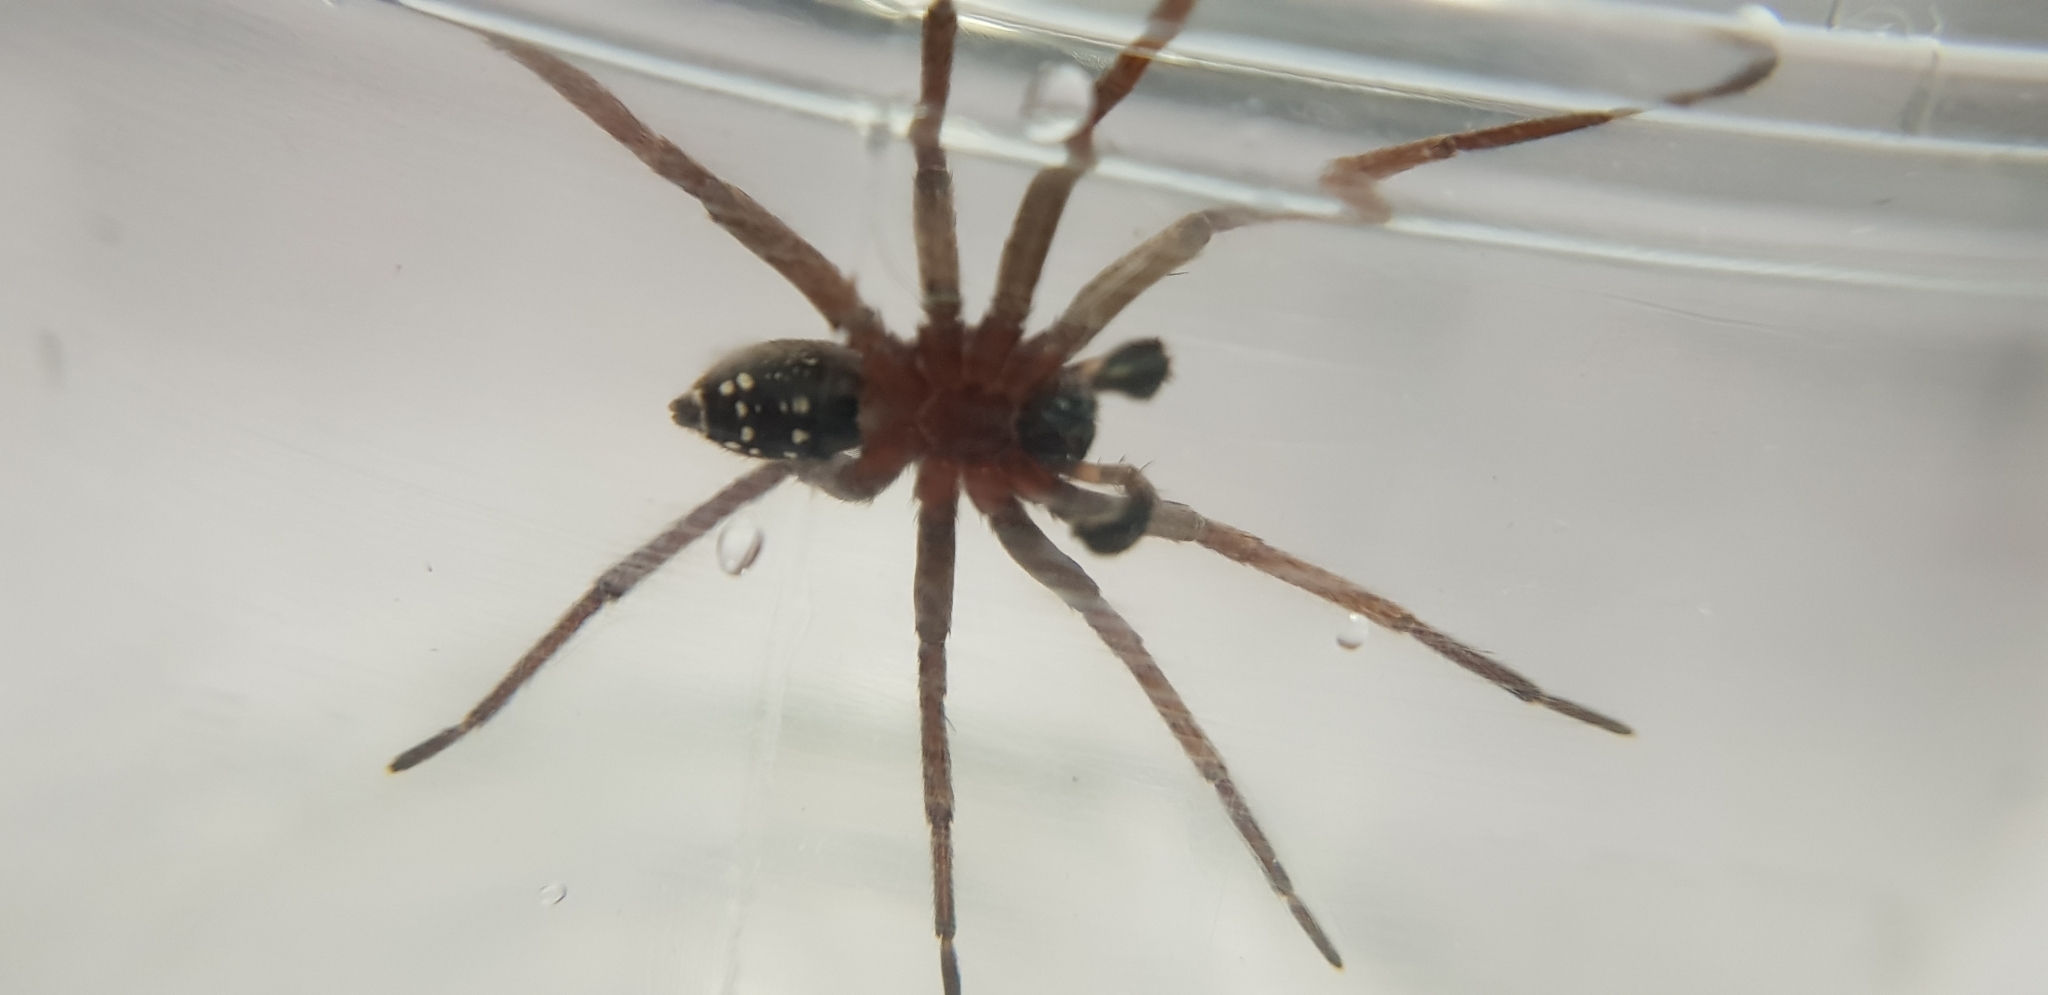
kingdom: Animalia
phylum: Arthropoda
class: Arachnida
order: Araneae
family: Miturgidae
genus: Mituliodon
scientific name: Mituliodon tarantulinus
